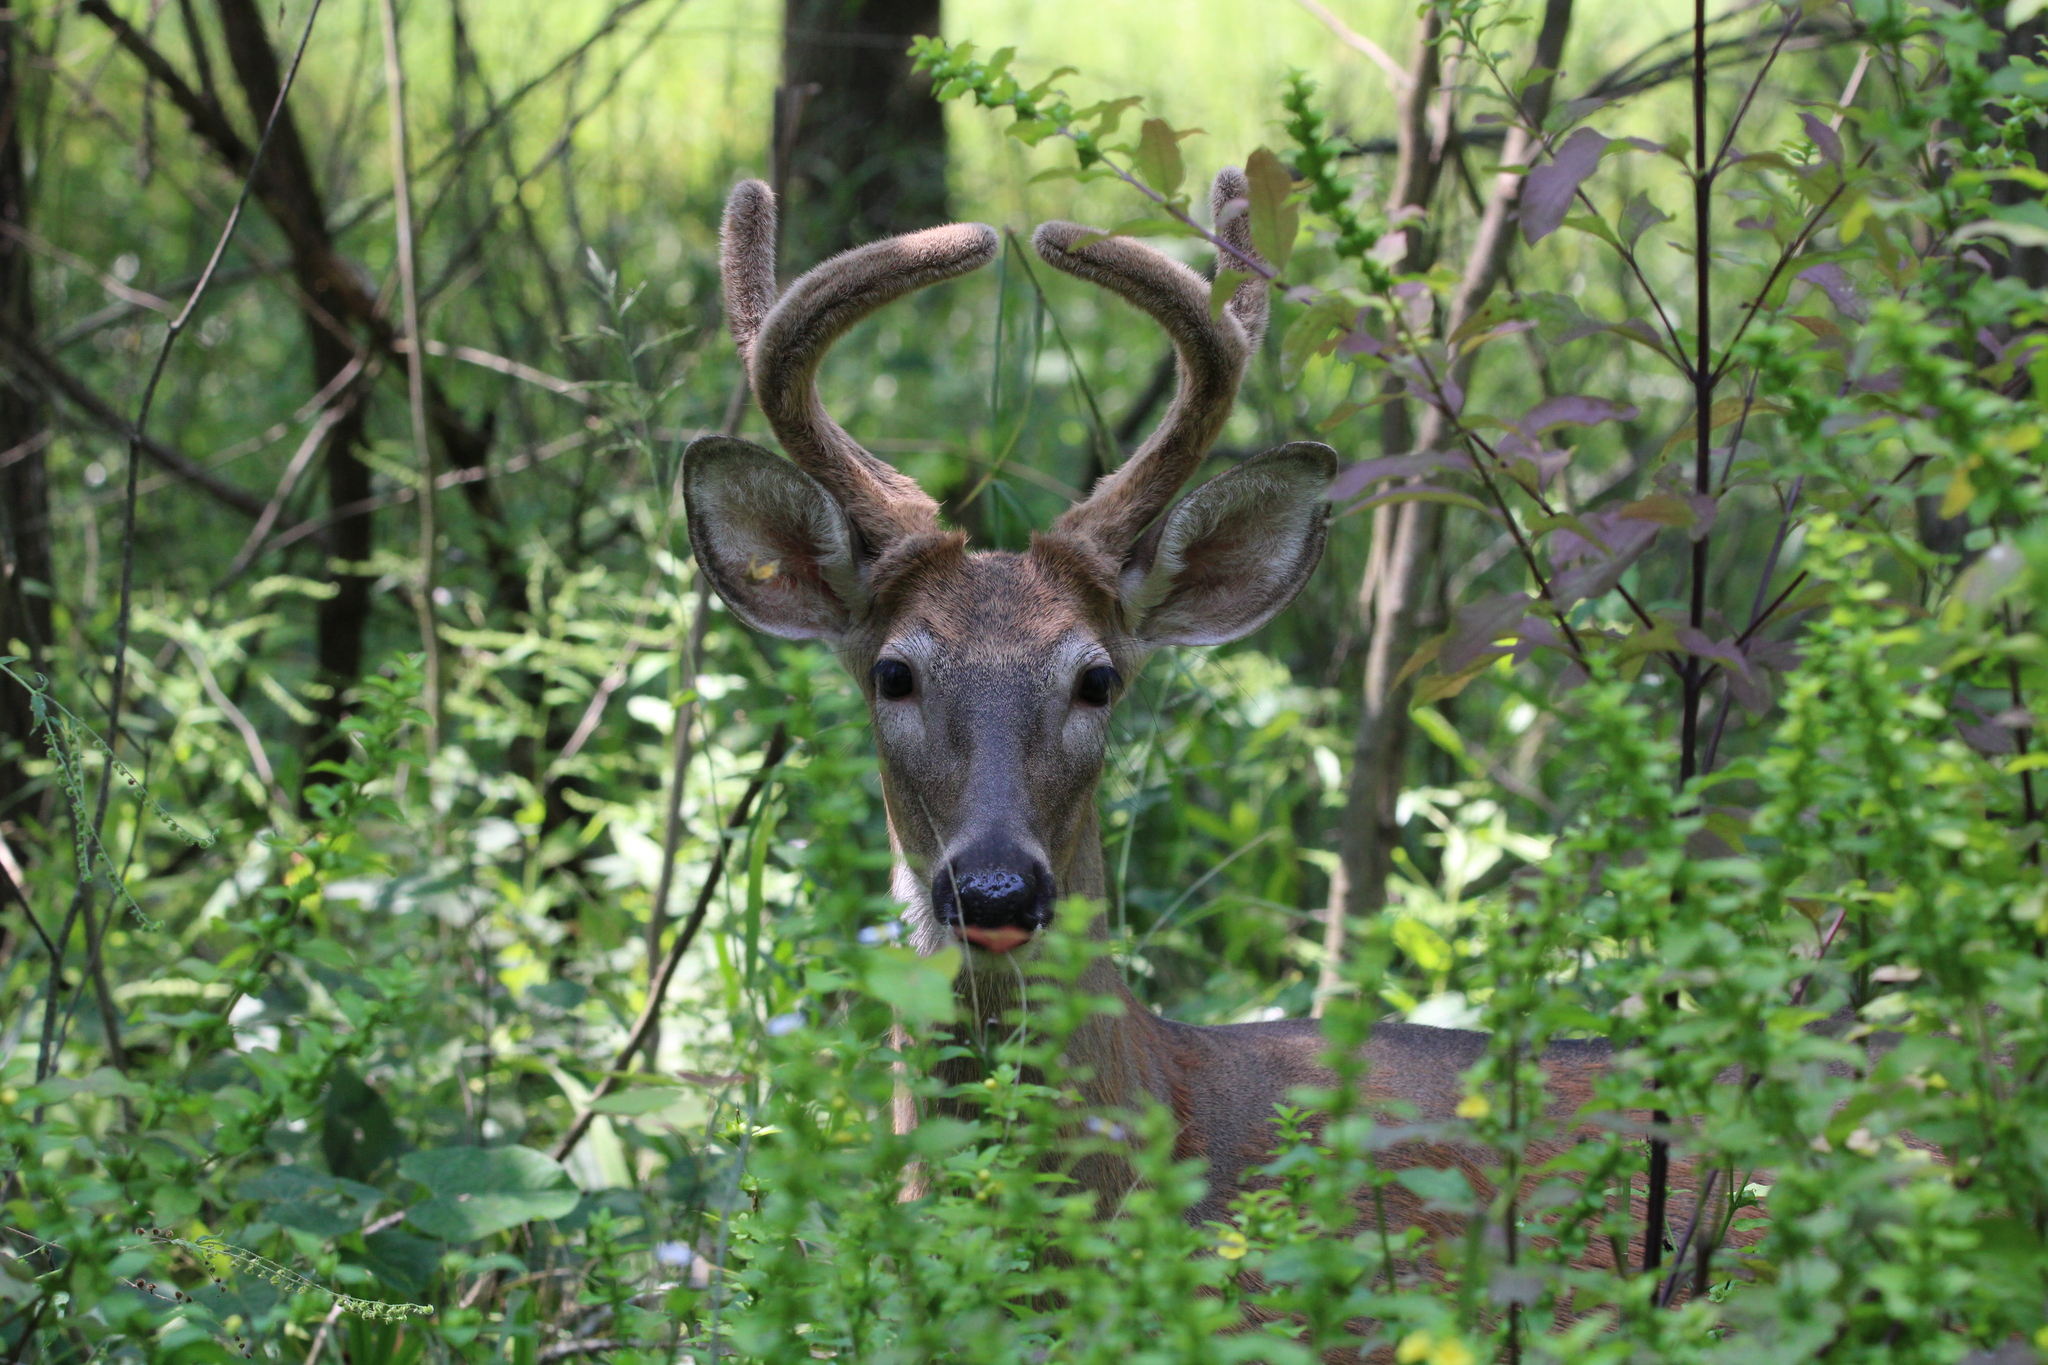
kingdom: Animalia
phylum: Chordata
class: Mammalia
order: Artiodactyla
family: Cervidae
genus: Odocoileus
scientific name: Odocoileus virginianus
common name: White-tailed deer
